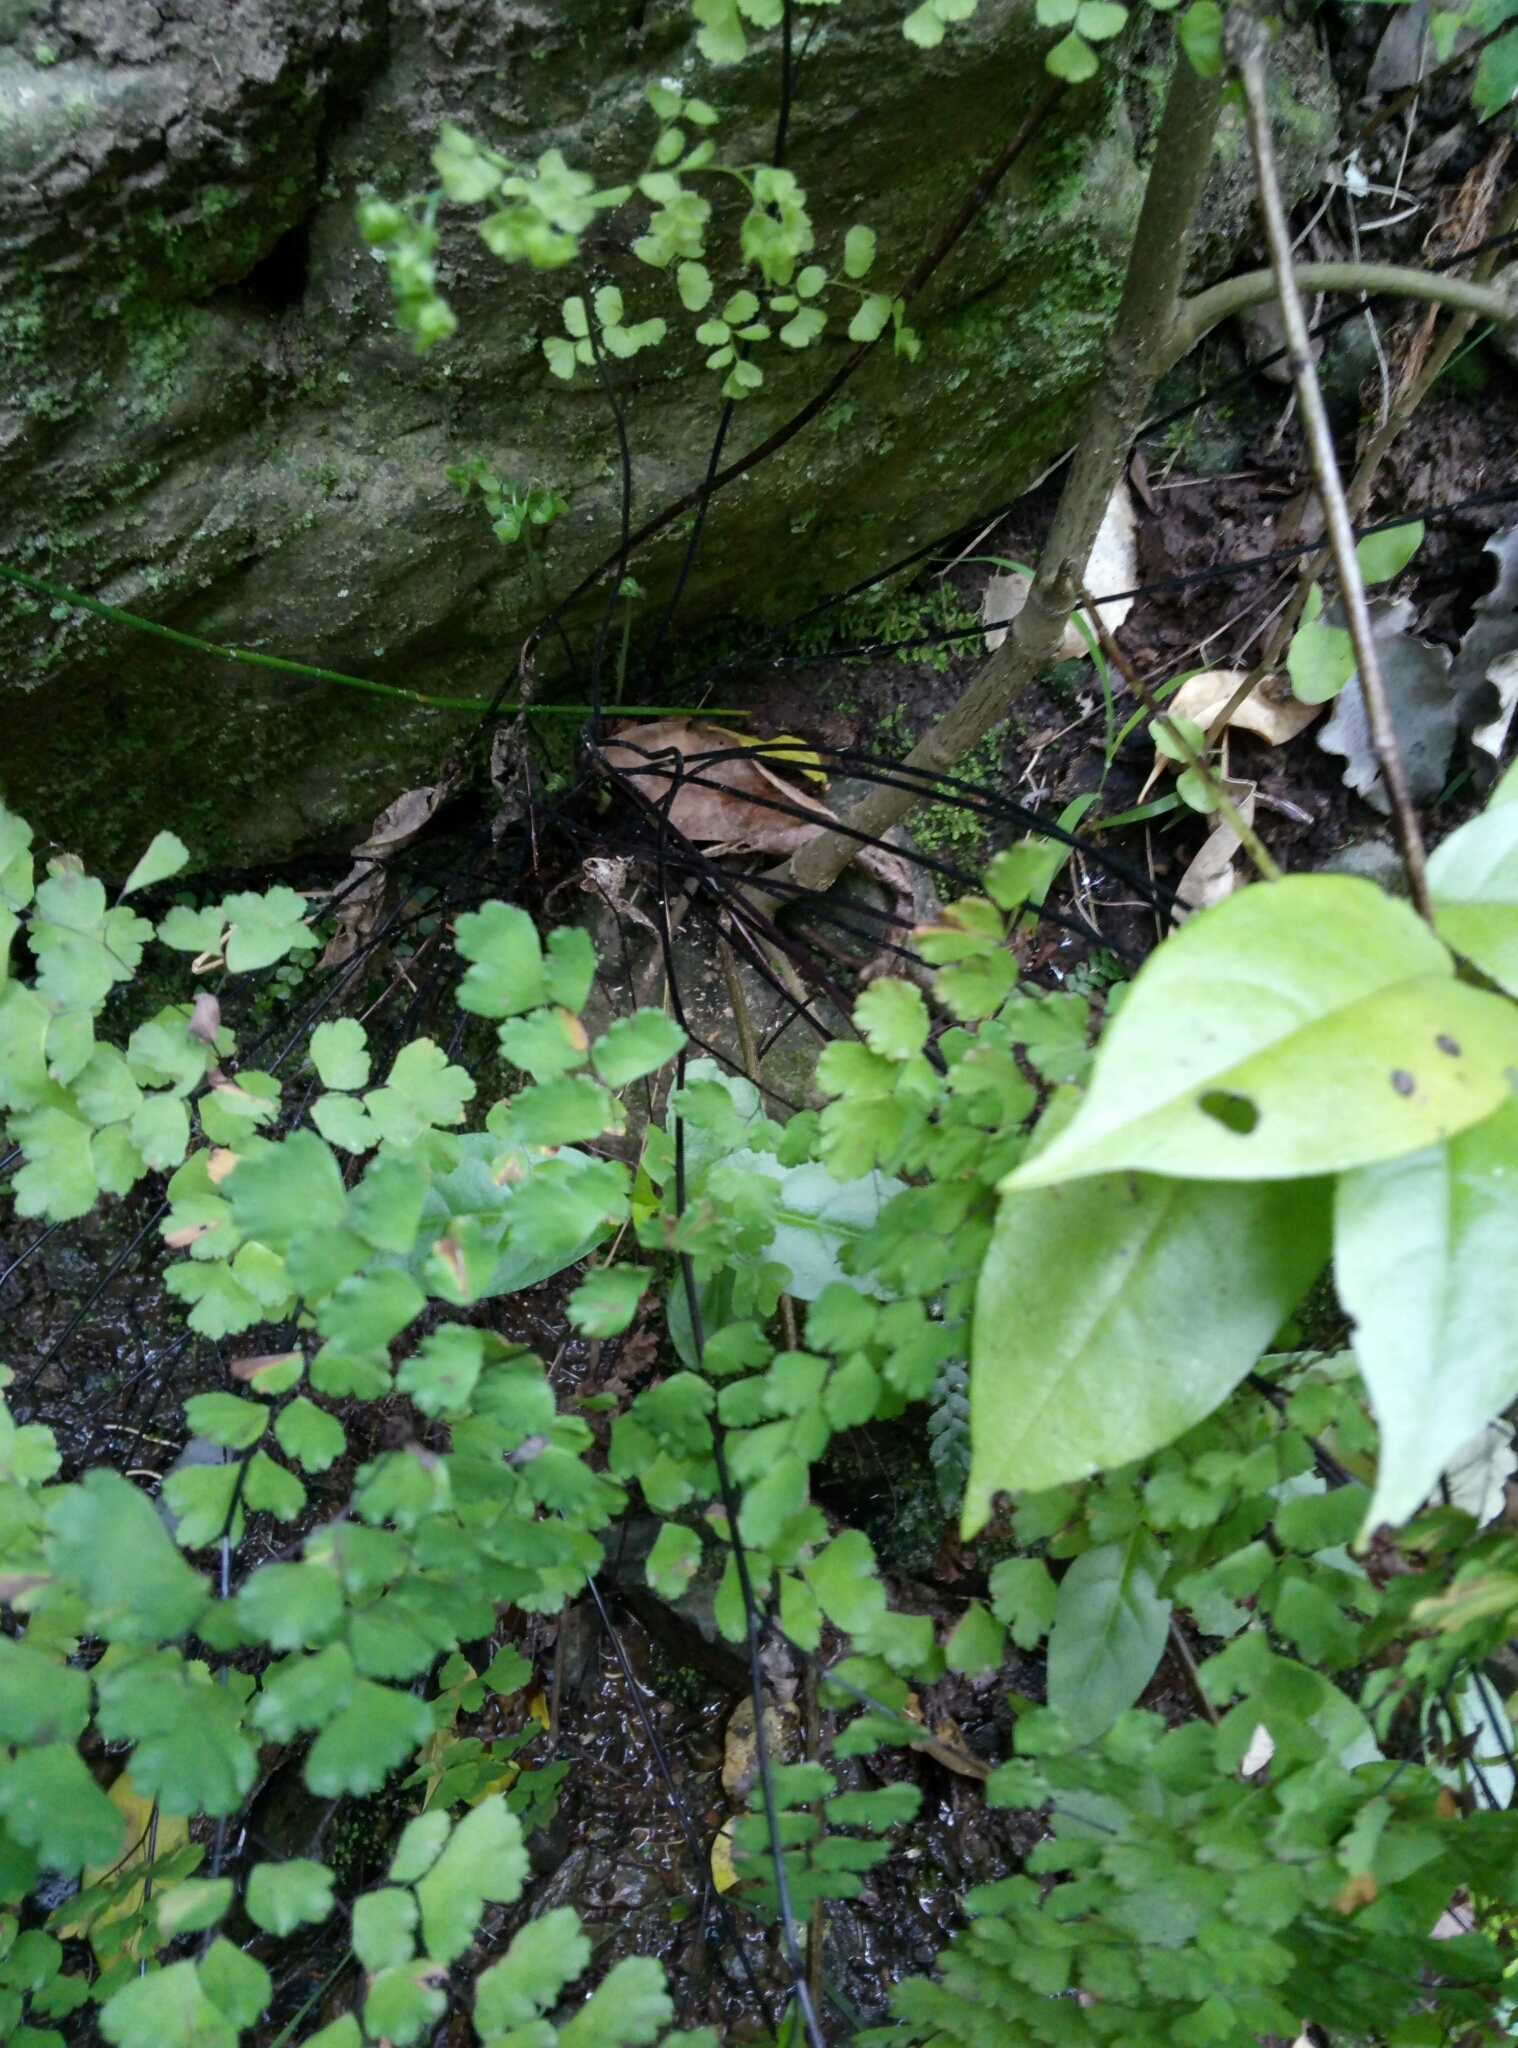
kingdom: Plantae
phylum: Tracheophyta
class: Polypodiopsida
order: Polypodiales
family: Pteridaceae
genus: Adiantum
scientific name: Adiantum raddianum
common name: Delta maidenhair fern
